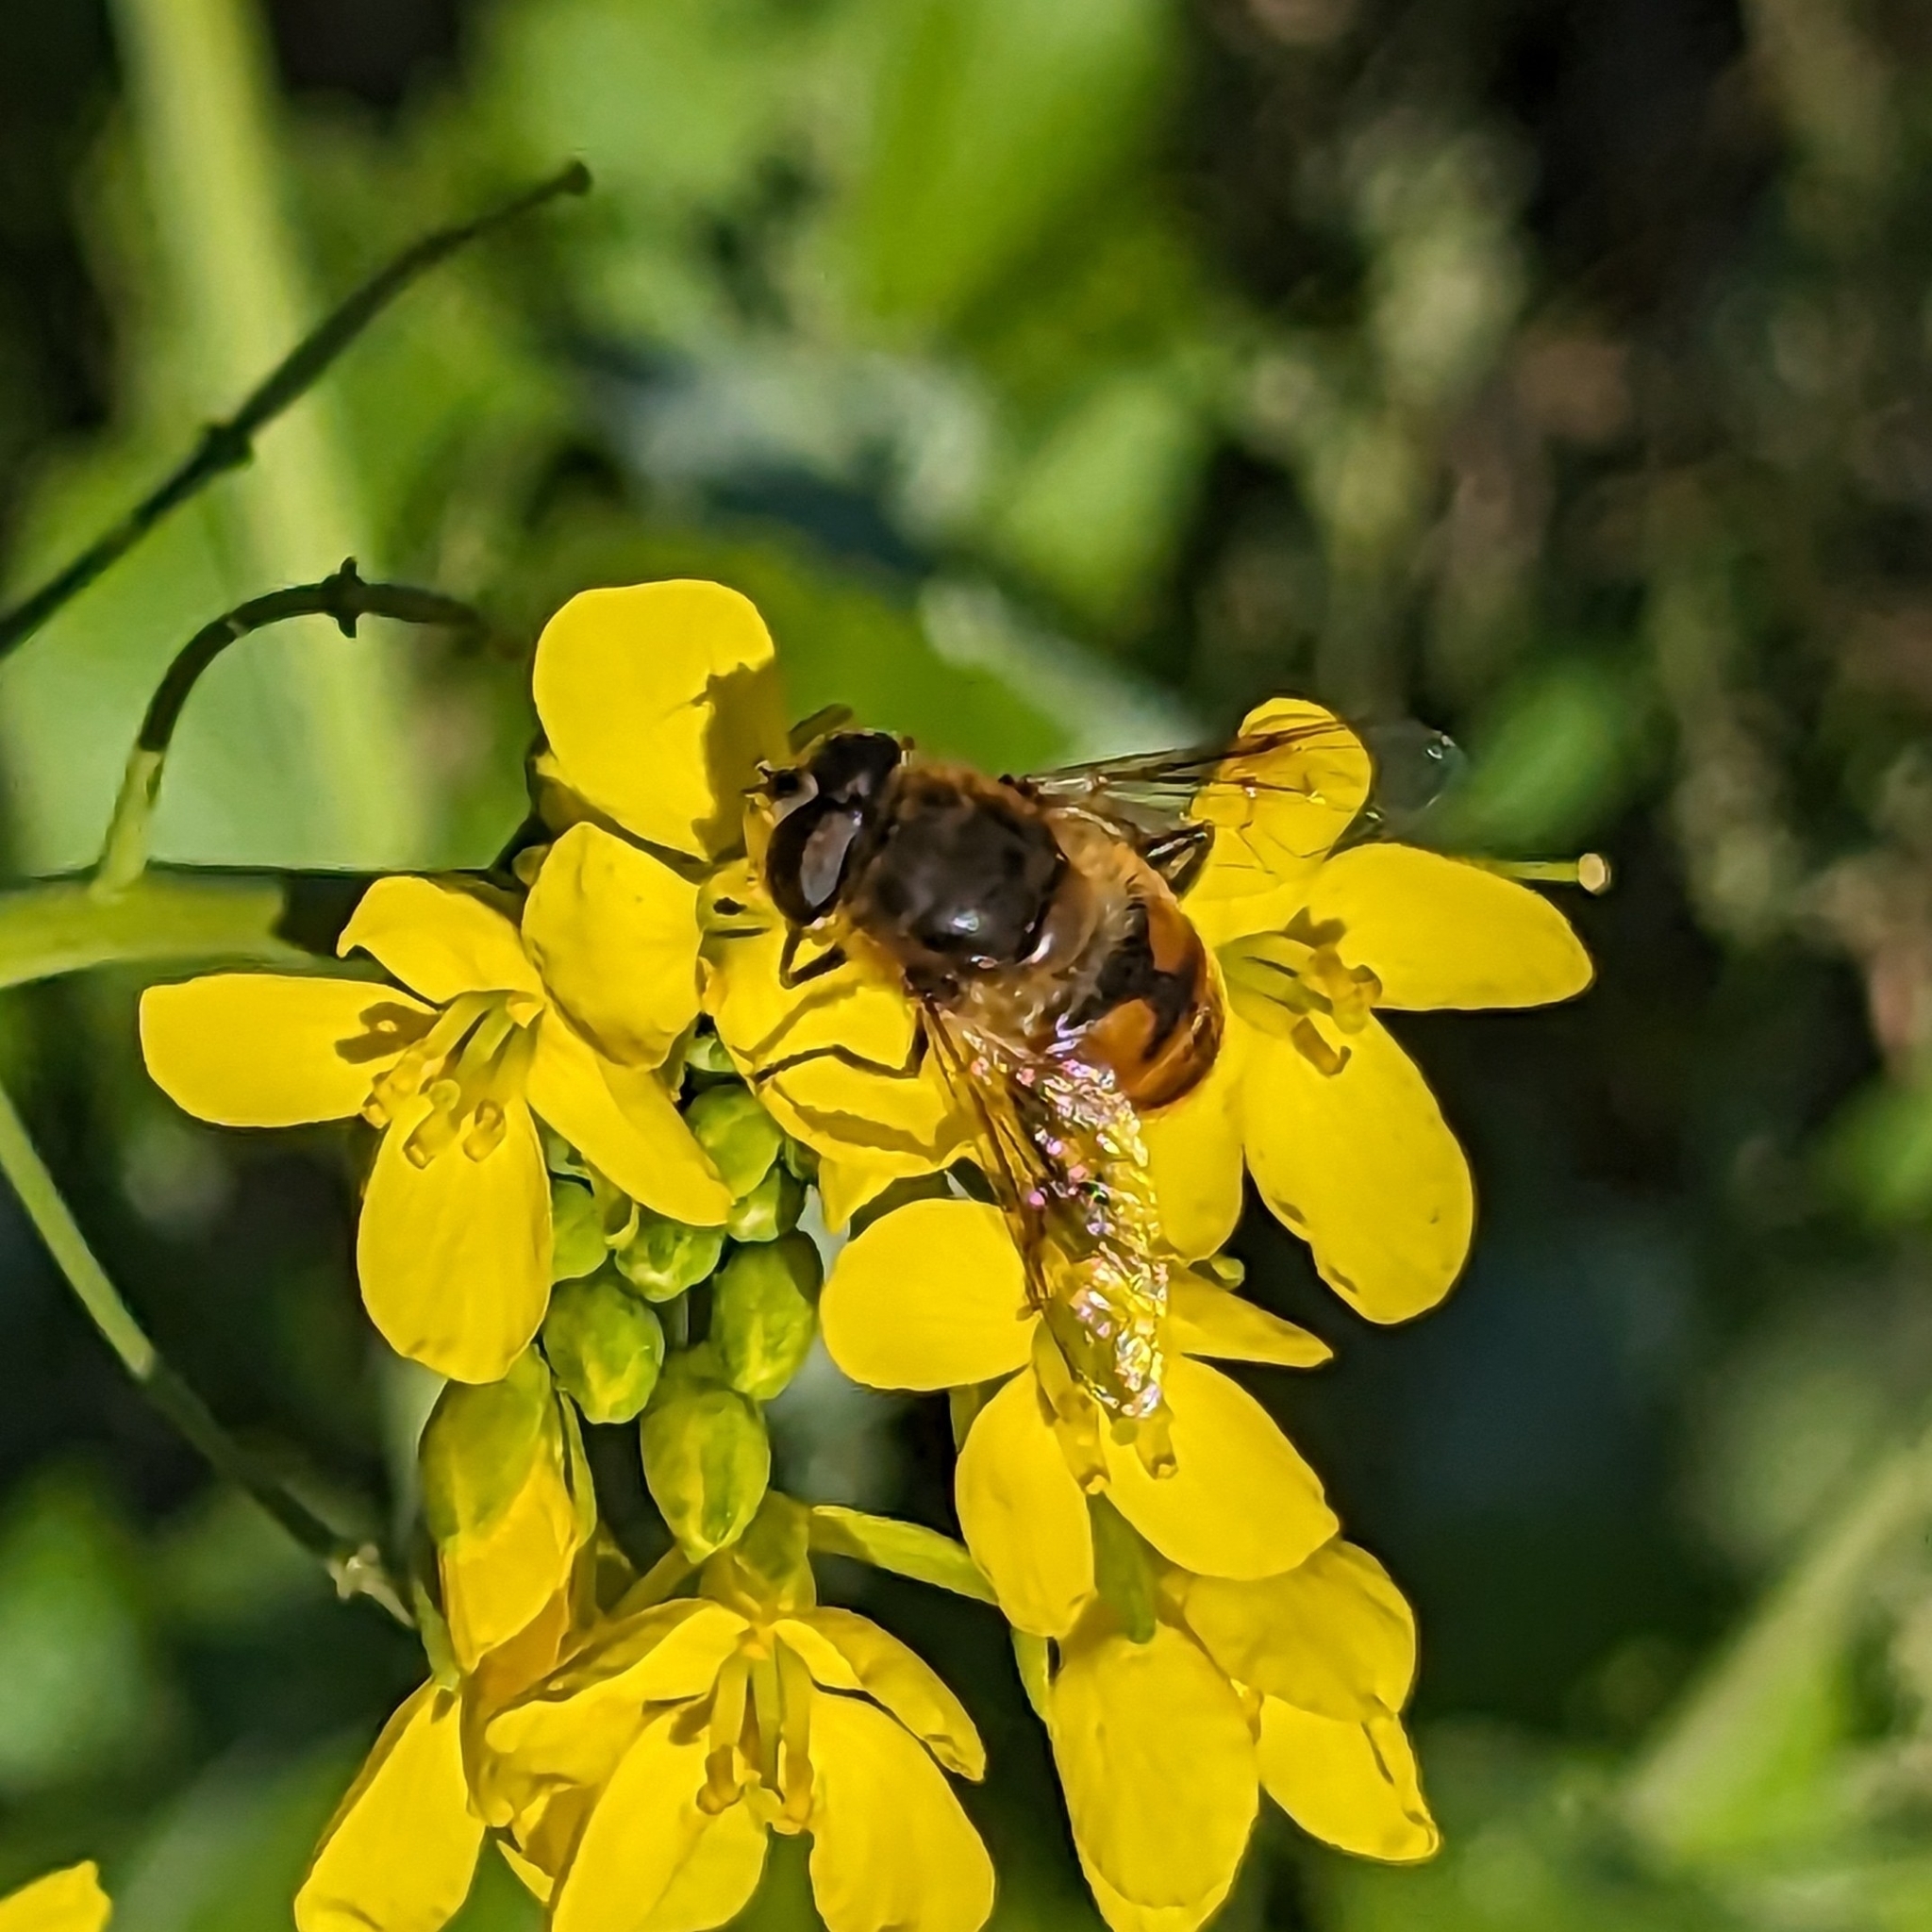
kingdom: Animalia
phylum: Arthropoda
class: Insecta
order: Diptera
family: Syrphidae
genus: Eristalis
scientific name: Eristalis tenax
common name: Drone fly
